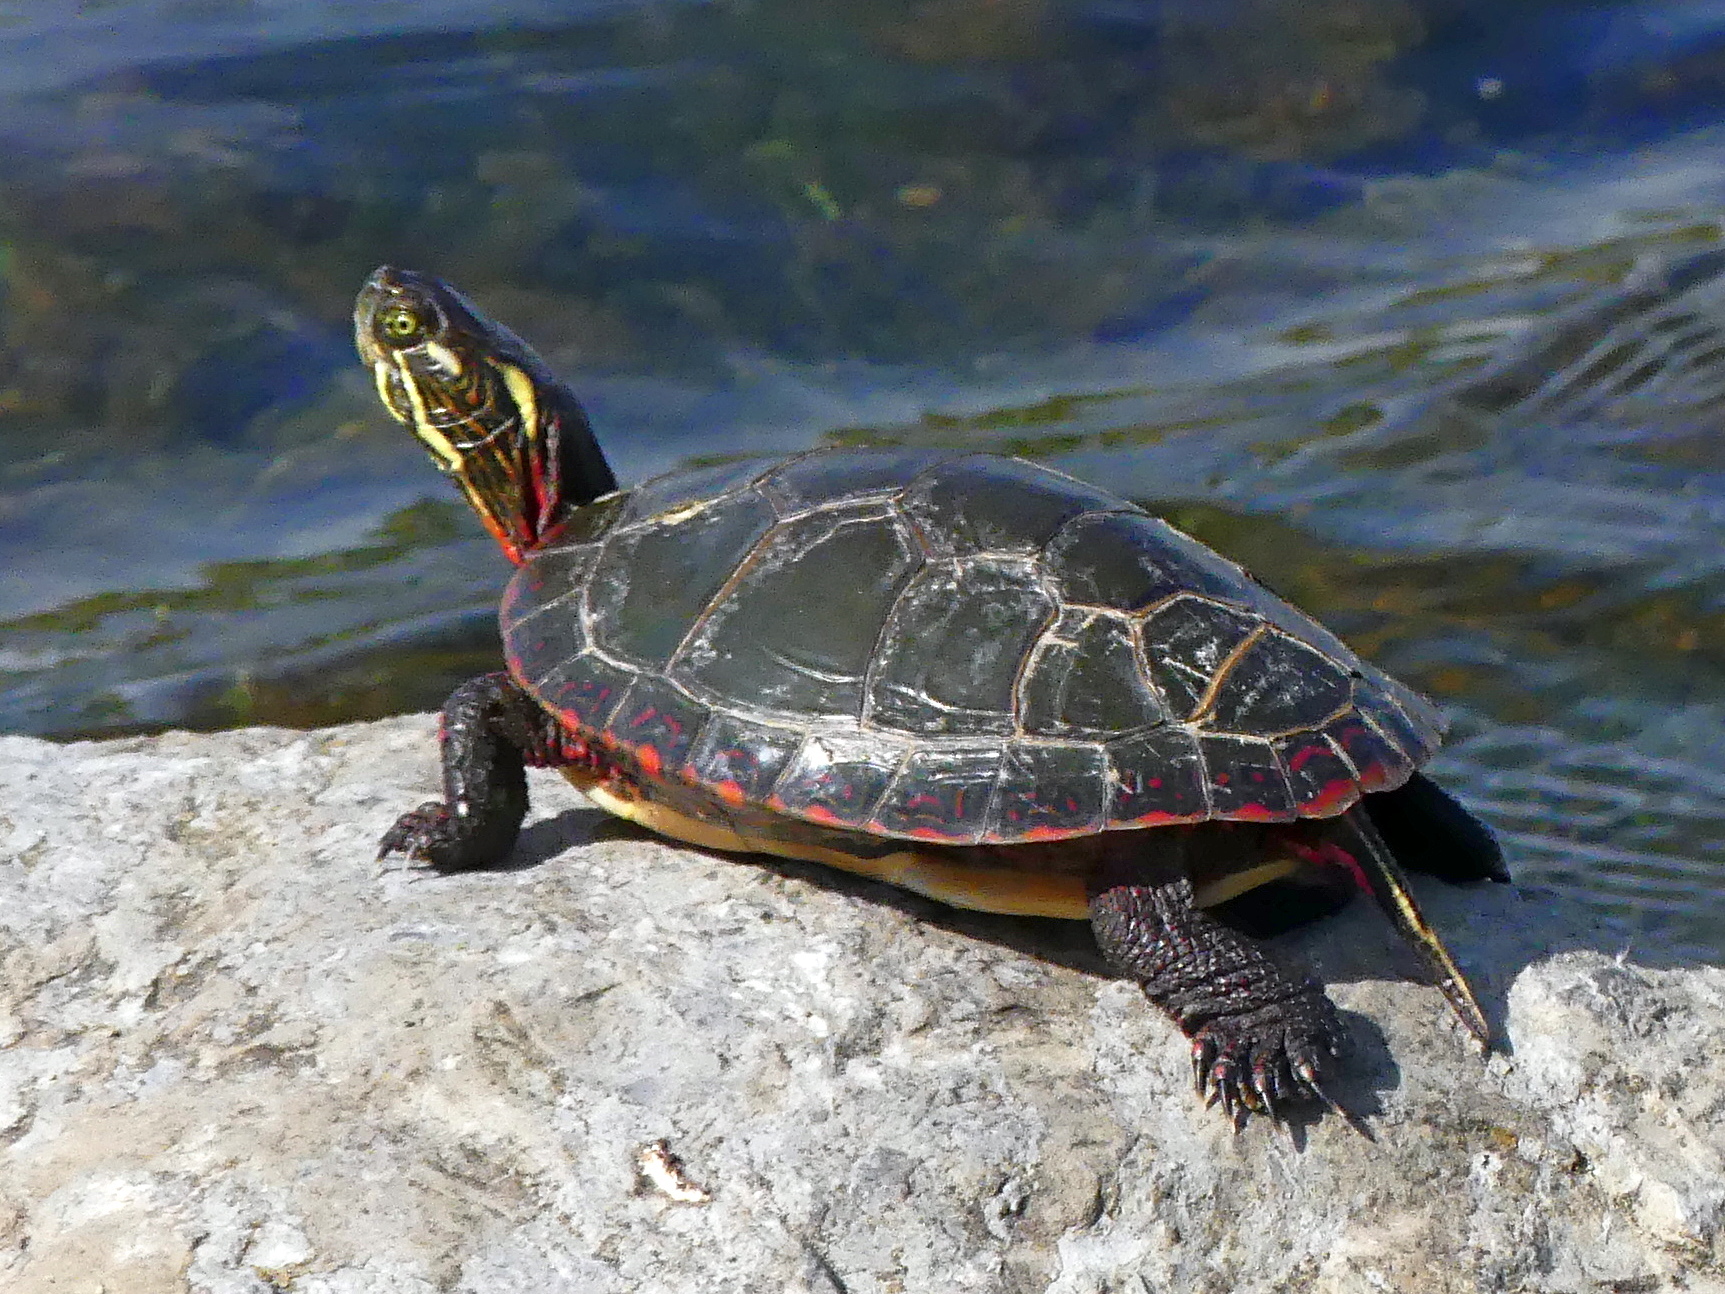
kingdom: Animalia
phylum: Chordata
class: Testudines
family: Emydidae
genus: Chrysemys
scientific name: Chrysemys picta
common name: Painted turtle
